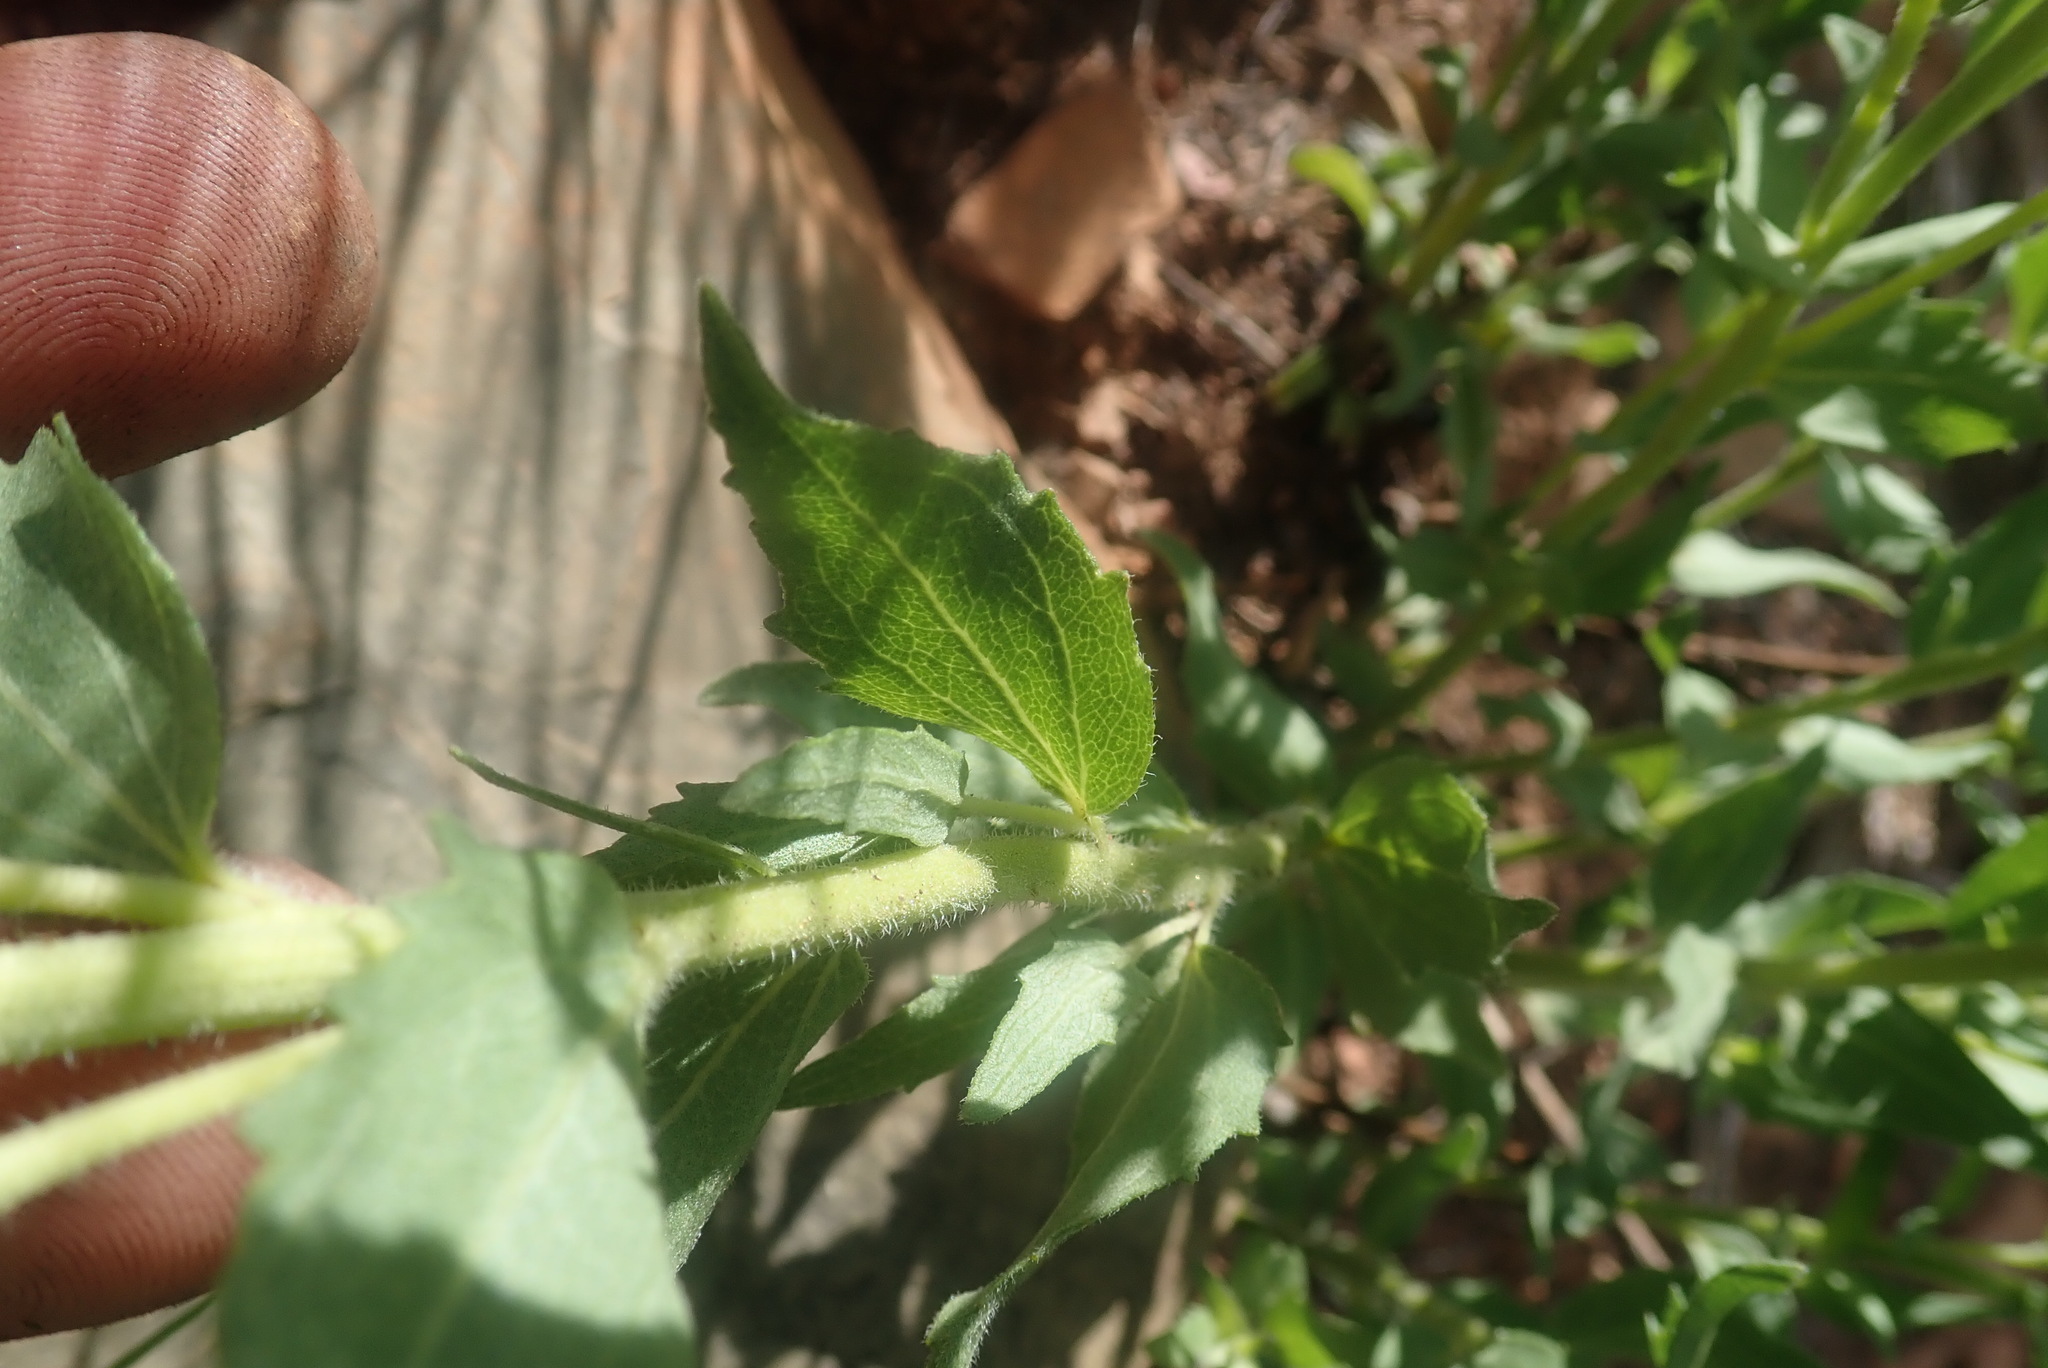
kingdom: Plantae
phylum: Tracheophyta
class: Magnoliopsida
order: Asterales
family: Asteraceae
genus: Stomatanthes
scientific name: Stomatanthes africanus
